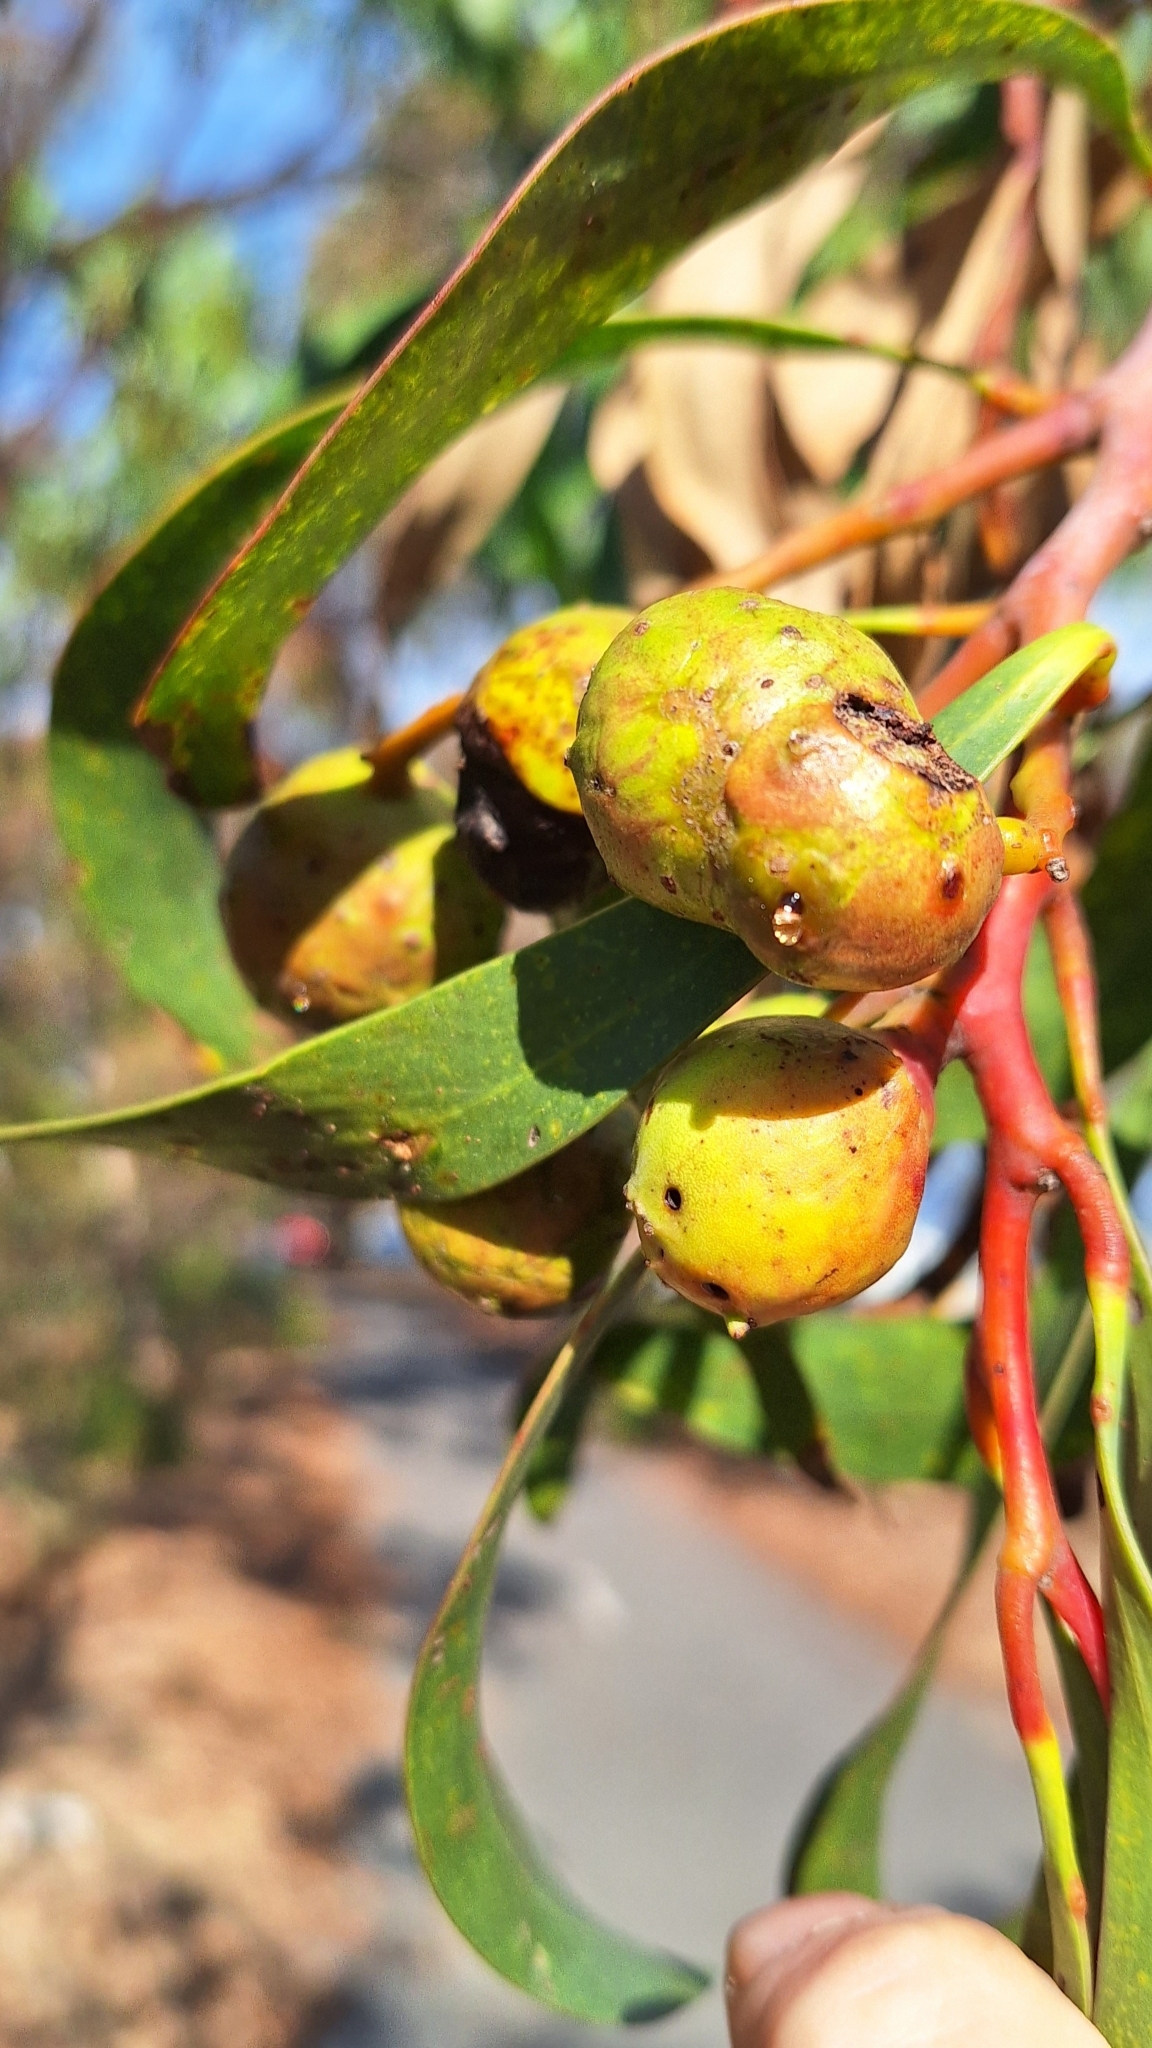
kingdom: Animalia
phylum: Arthropoda
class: Insecta
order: Hymenoptera
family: Pteromalidae
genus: Trichilogaster
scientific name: Trichilogaster signiventris
